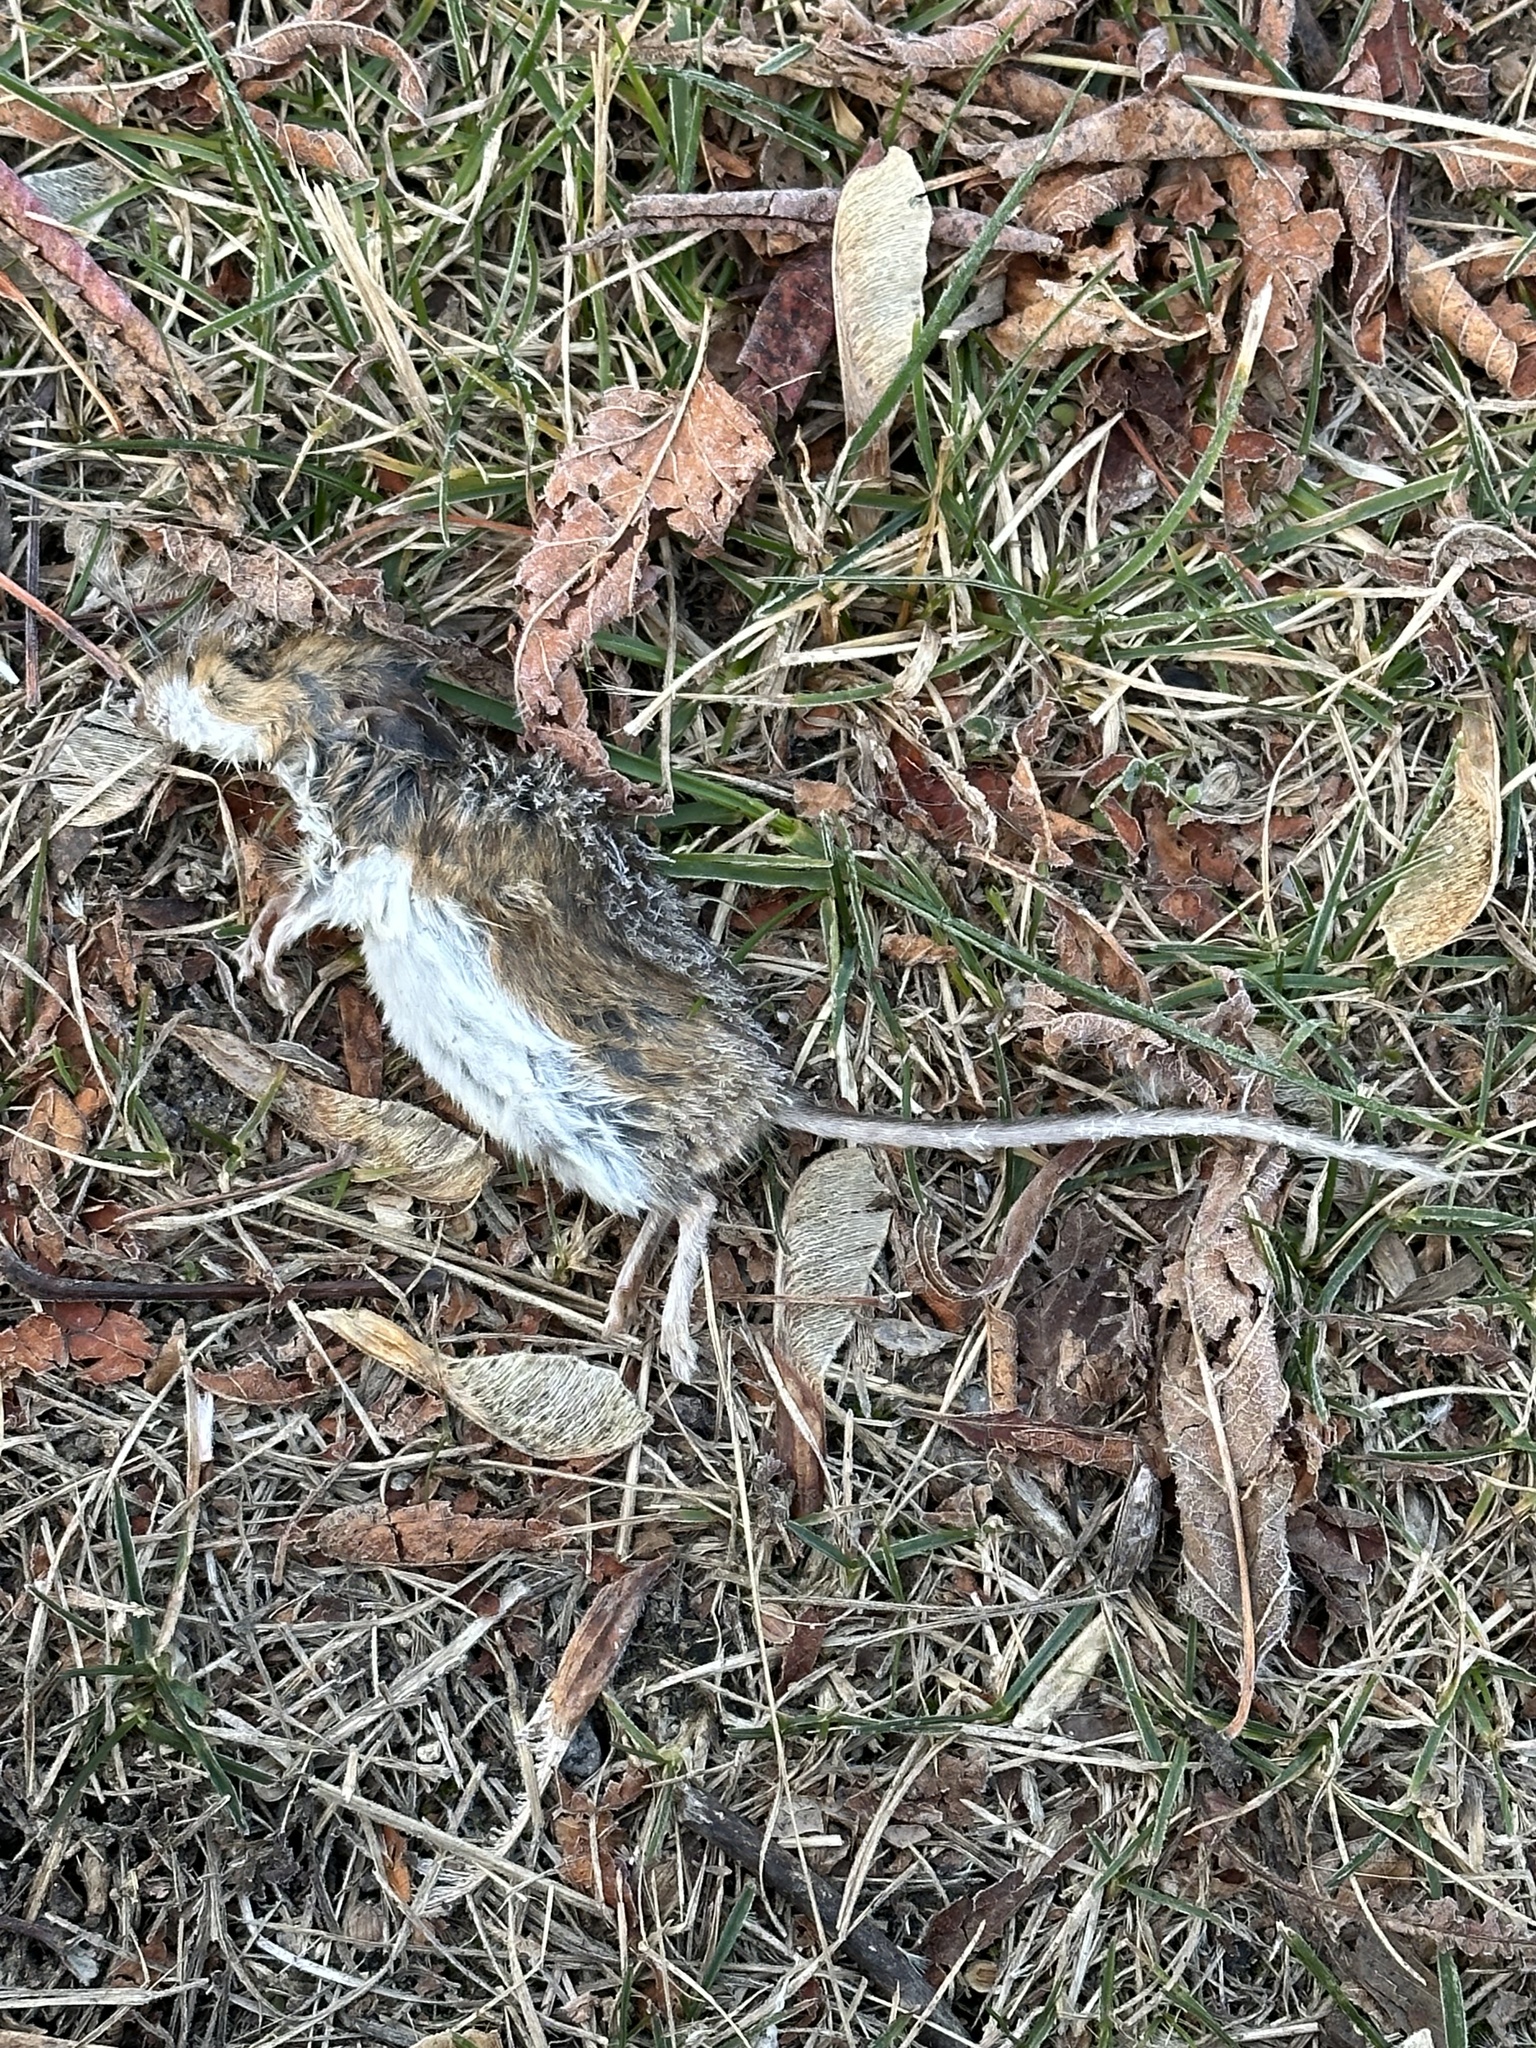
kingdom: Animalia
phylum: Chordata
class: Mammalia
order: Rodentia
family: Cricetidae
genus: Peromyscus
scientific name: Peromyscus leucopus
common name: White-footed deermouse
